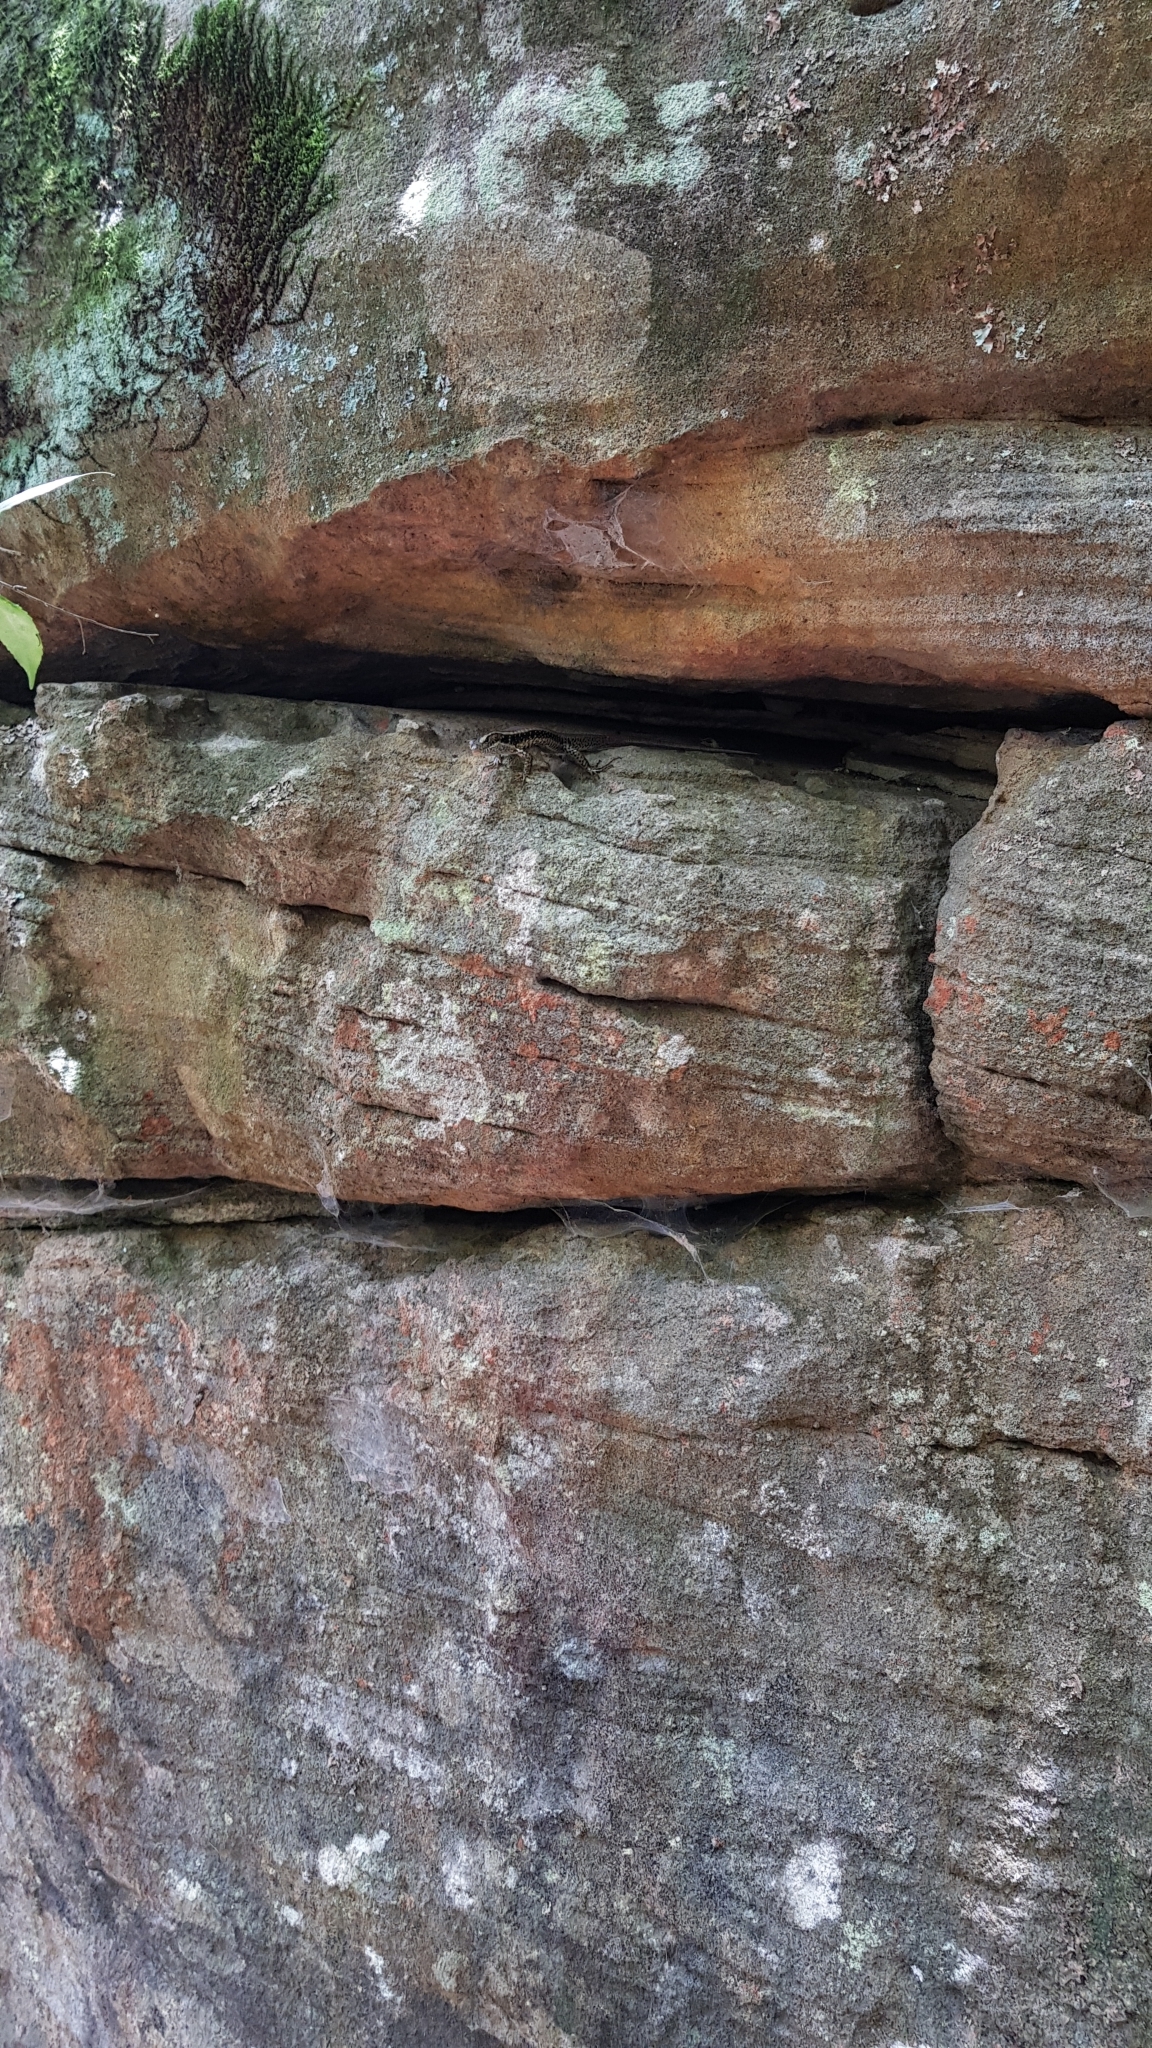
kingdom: Animalia
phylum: Chordata
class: Squamata
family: Scincidae
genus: Eulamprus
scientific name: Eulamprus quoyii
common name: Eastern water skink
